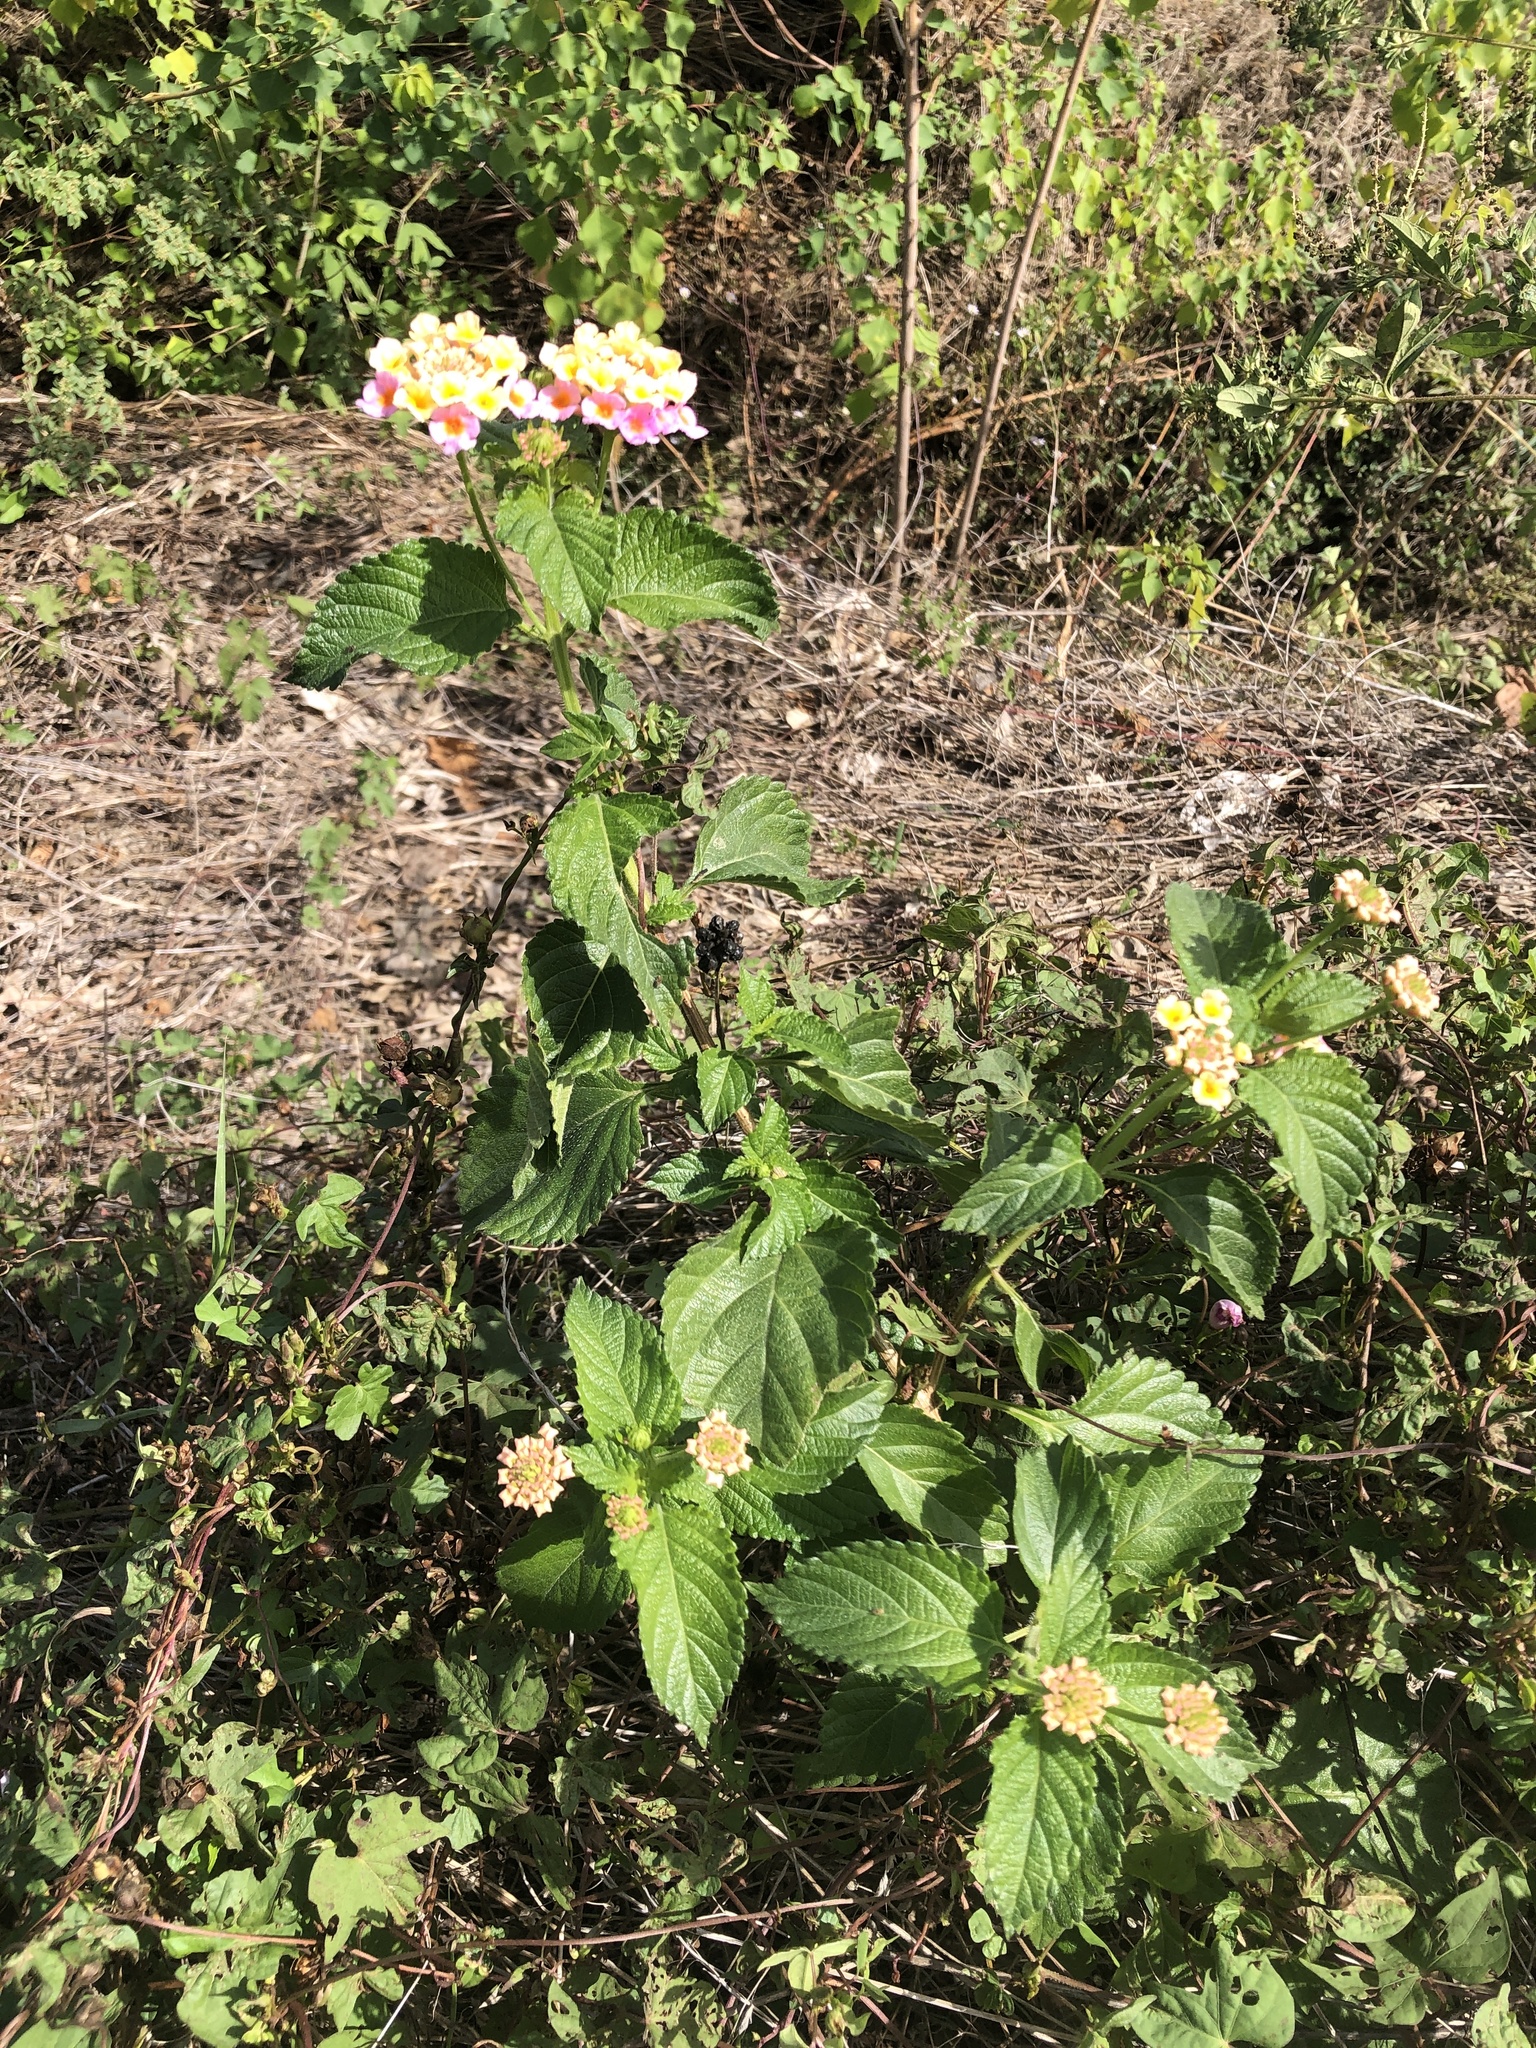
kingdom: Plantae
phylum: Tracheophyta
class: Magnoliopsida
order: Lamiales
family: Verbenaceae
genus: Lantana
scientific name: Lantana strigocamara
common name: Lantana
